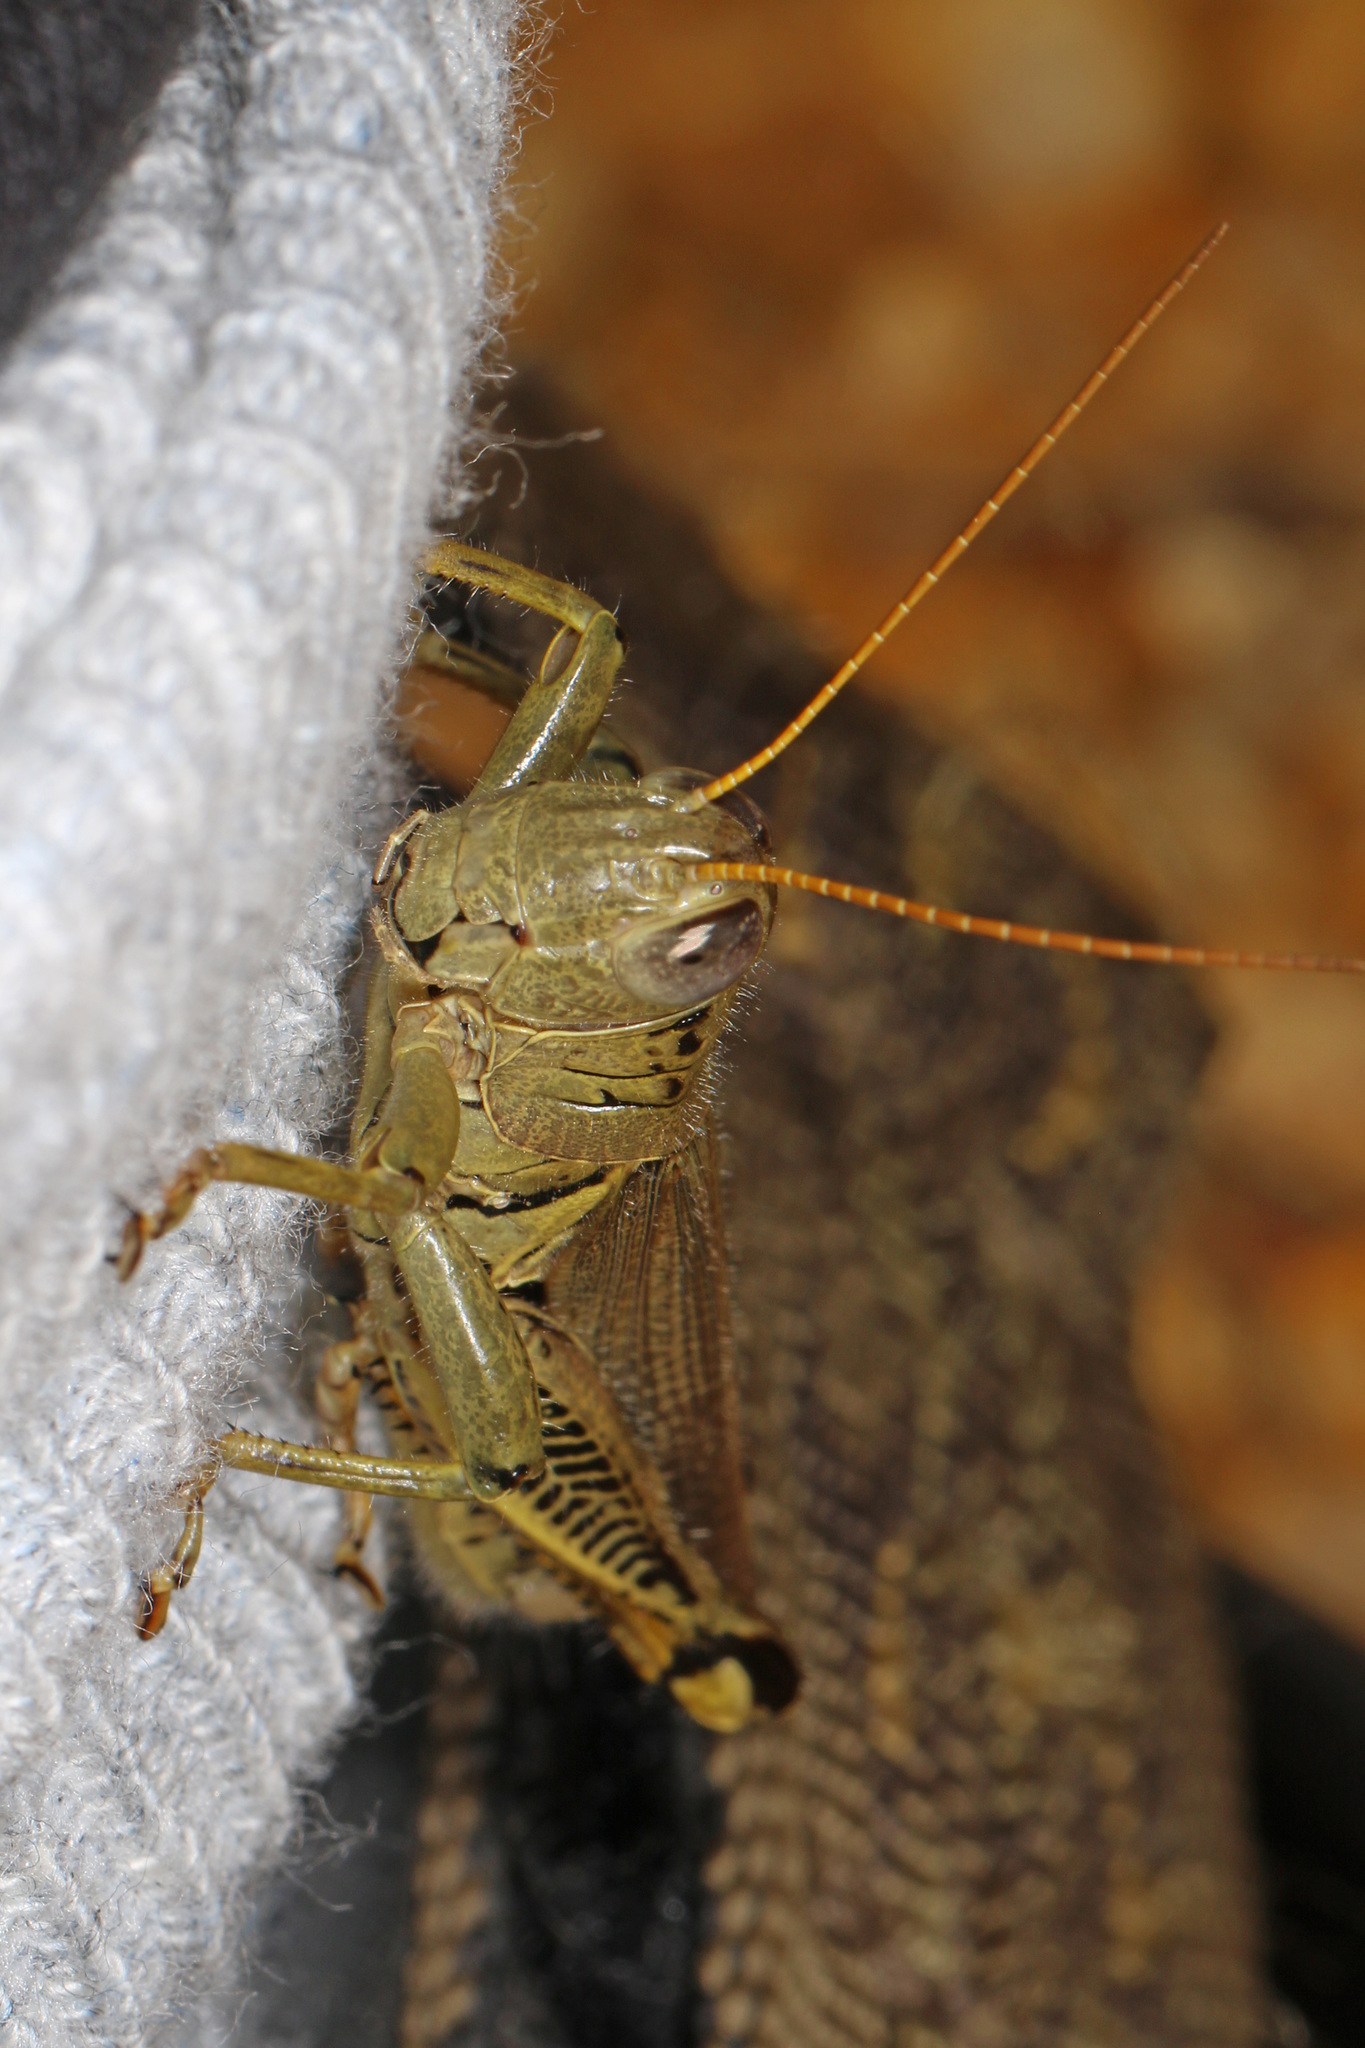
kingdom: Animalia
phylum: Arthropoda
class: Insecta
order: Orthoptera
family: Acrididae
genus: Melanoplus
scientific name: Melanoplus differentialis
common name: Differential grasshopper
